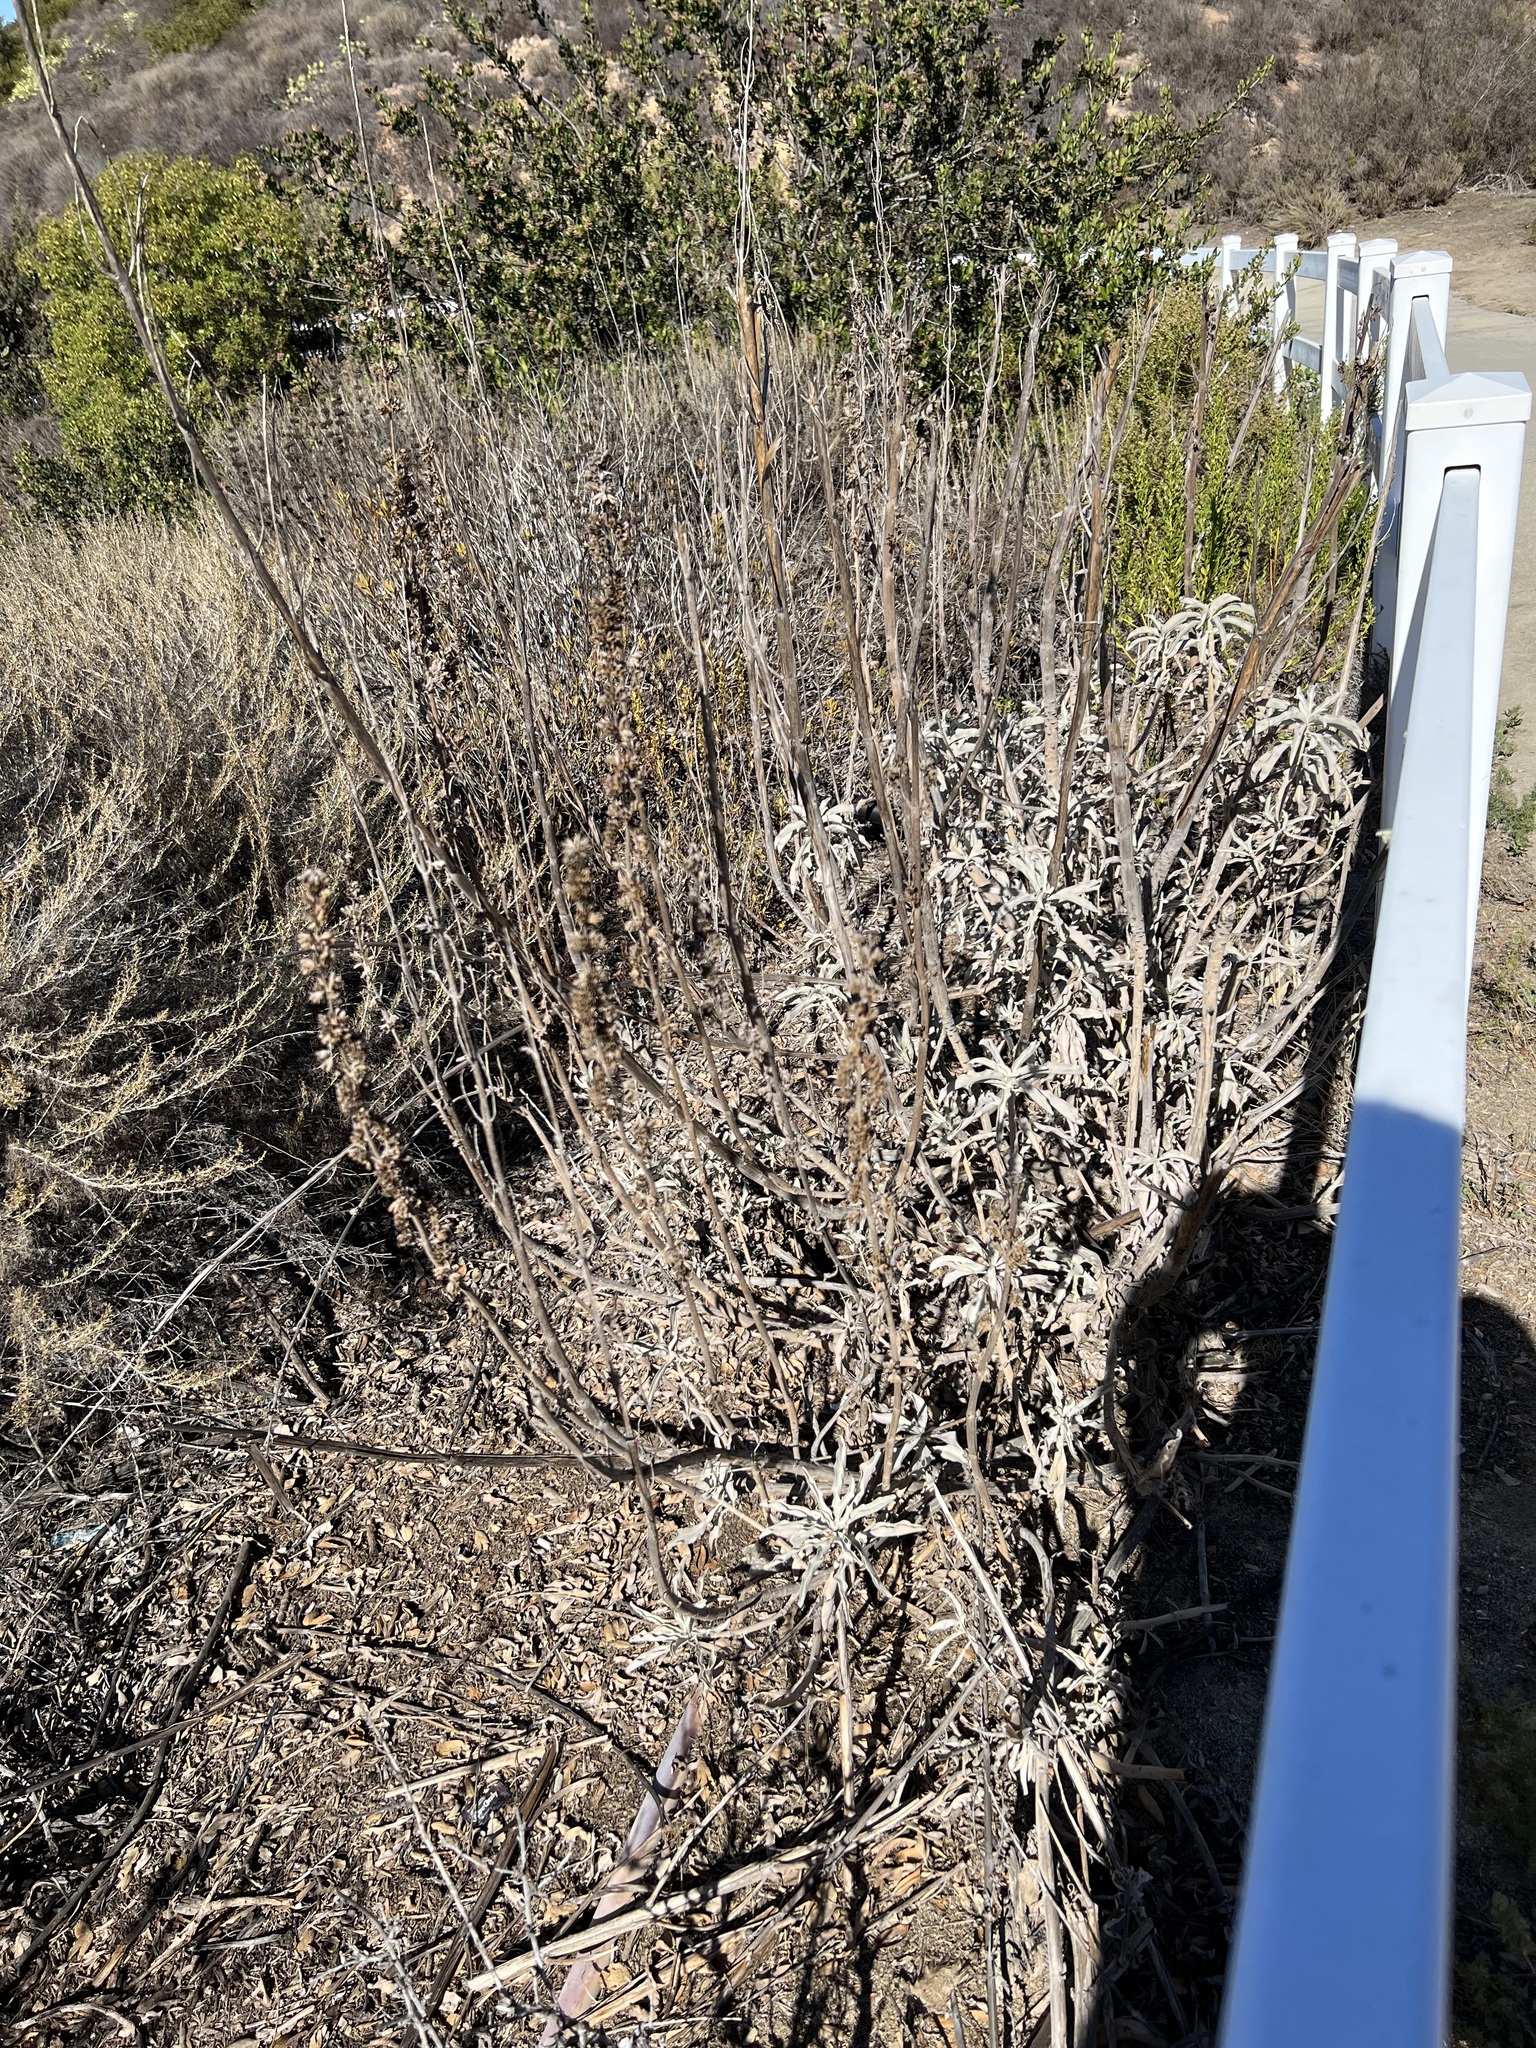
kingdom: Plantae
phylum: Tracheophyta
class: Magnoliopsida
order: Lamiales
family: Lamiaceae
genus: Salvia
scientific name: Salvia apiana
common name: White sage
